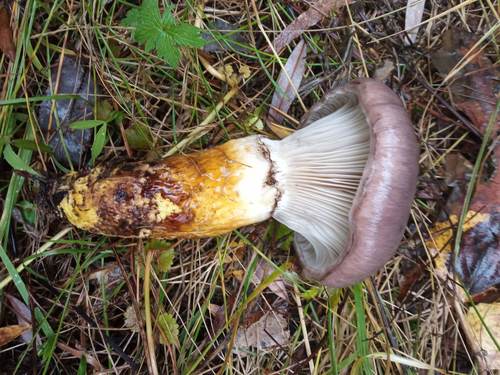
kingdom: Fungi
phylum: Basidiomycota
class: Agaricomycetes
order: Boletales
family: Gomphidiaceae
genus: Gomphidius
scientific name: Gomphidius glutinosus
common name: Slimy spike
